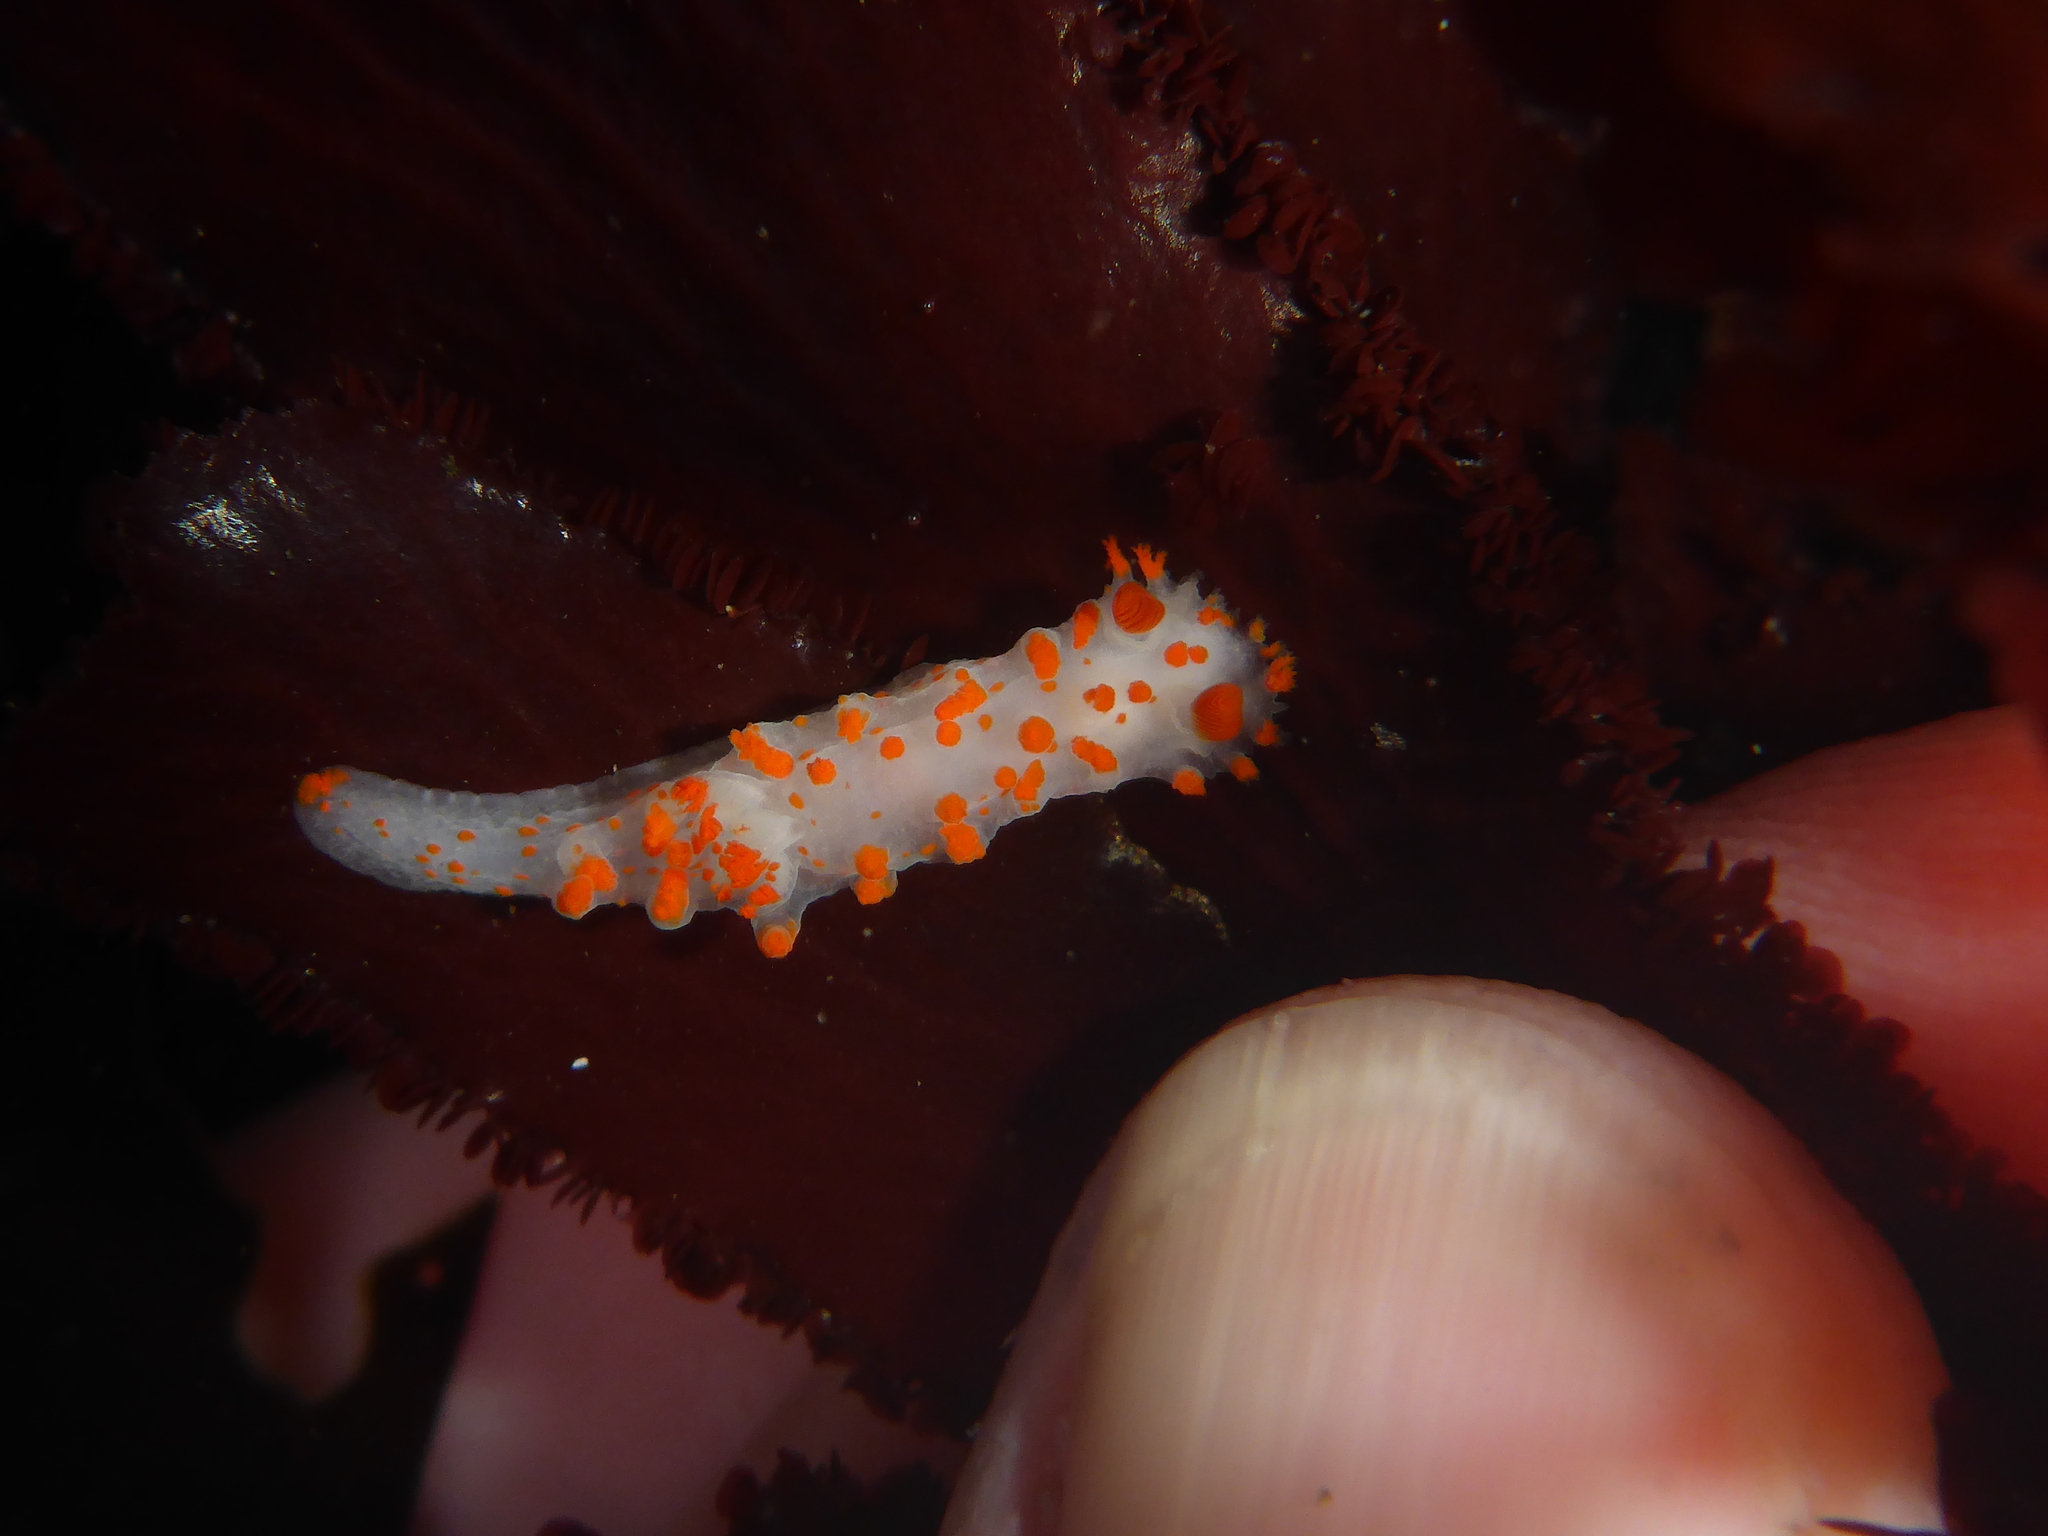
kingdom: Animalia
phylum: Mollusca
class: Gastropoda
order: Nudibranchia
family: Polyceridae
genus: Triopha
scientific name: Triopha catalinae
